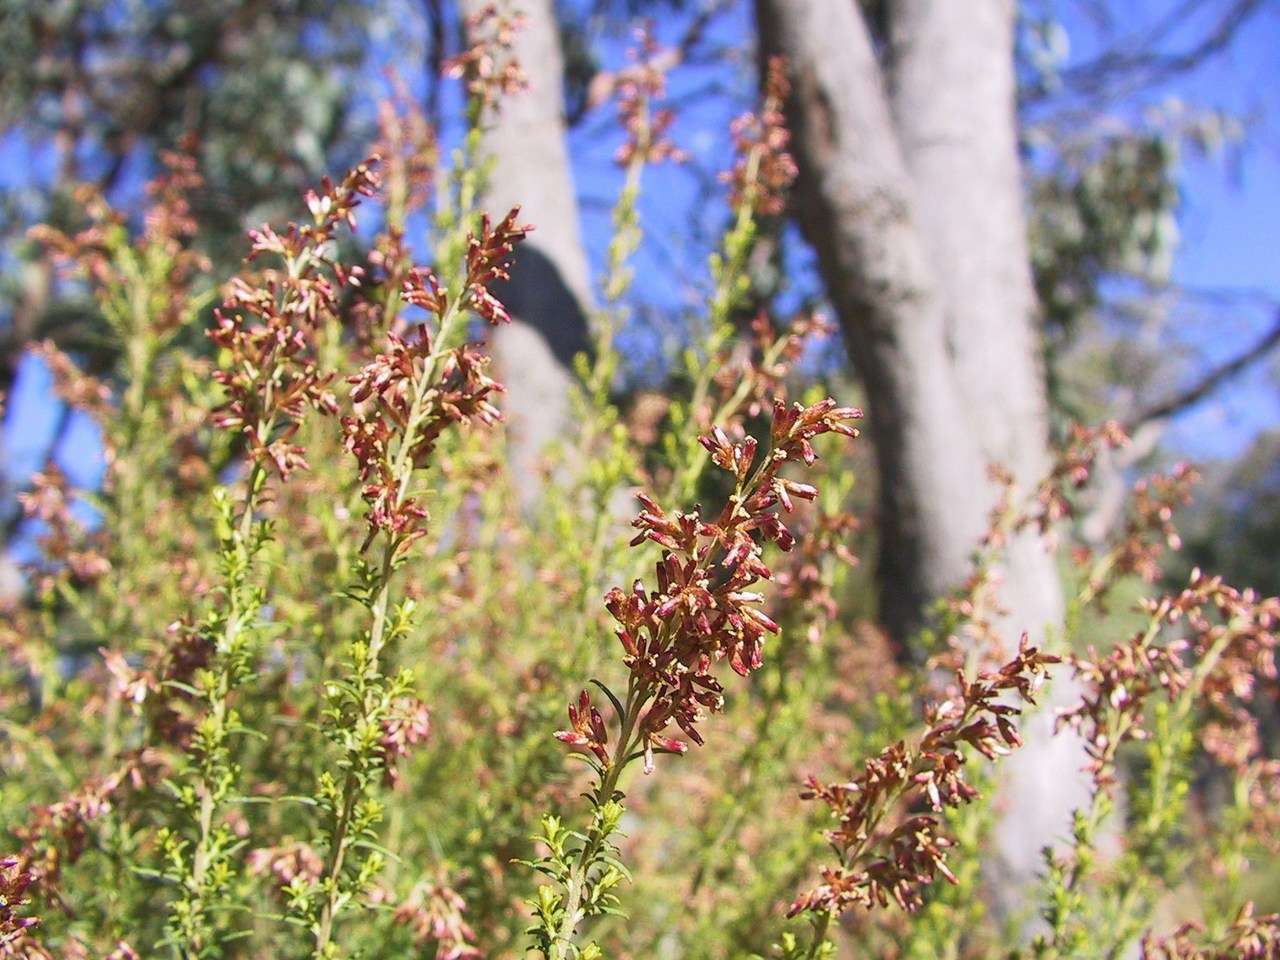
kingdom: Plantae
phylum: Tracheophyta
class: Magnoliopsida
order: Asterales
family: Asteraceae
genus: Cassinia
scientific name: Cassinia sifton
